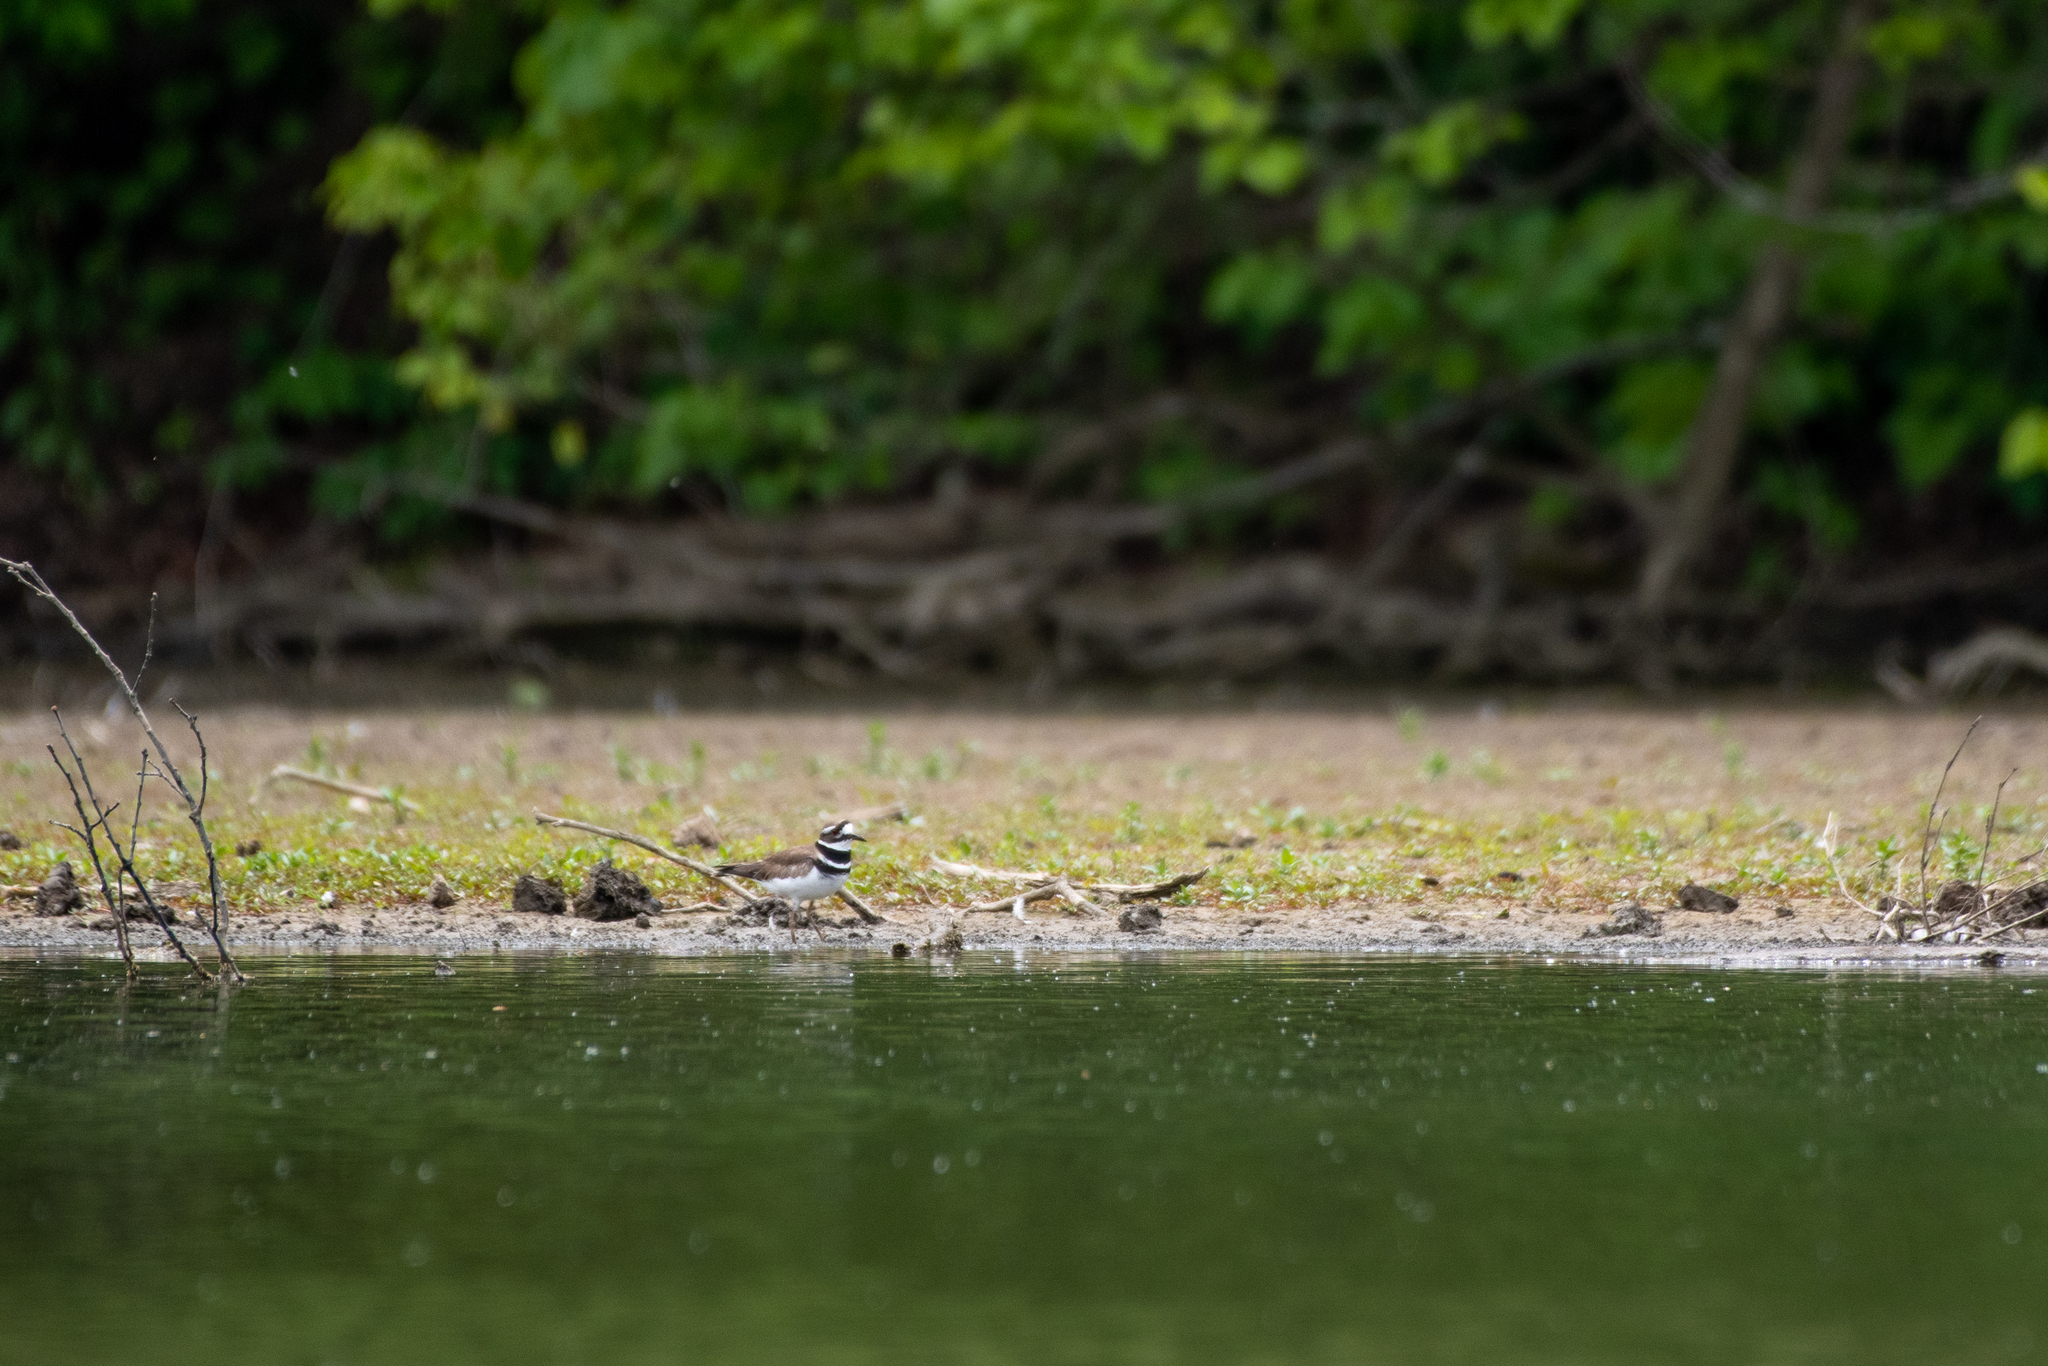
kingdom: Animalia
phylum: Chordata
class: Aves
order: Charadriiformes
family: Charadriidae
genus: Charadrius
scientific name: Charadrius vociferus
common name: Killdeer
